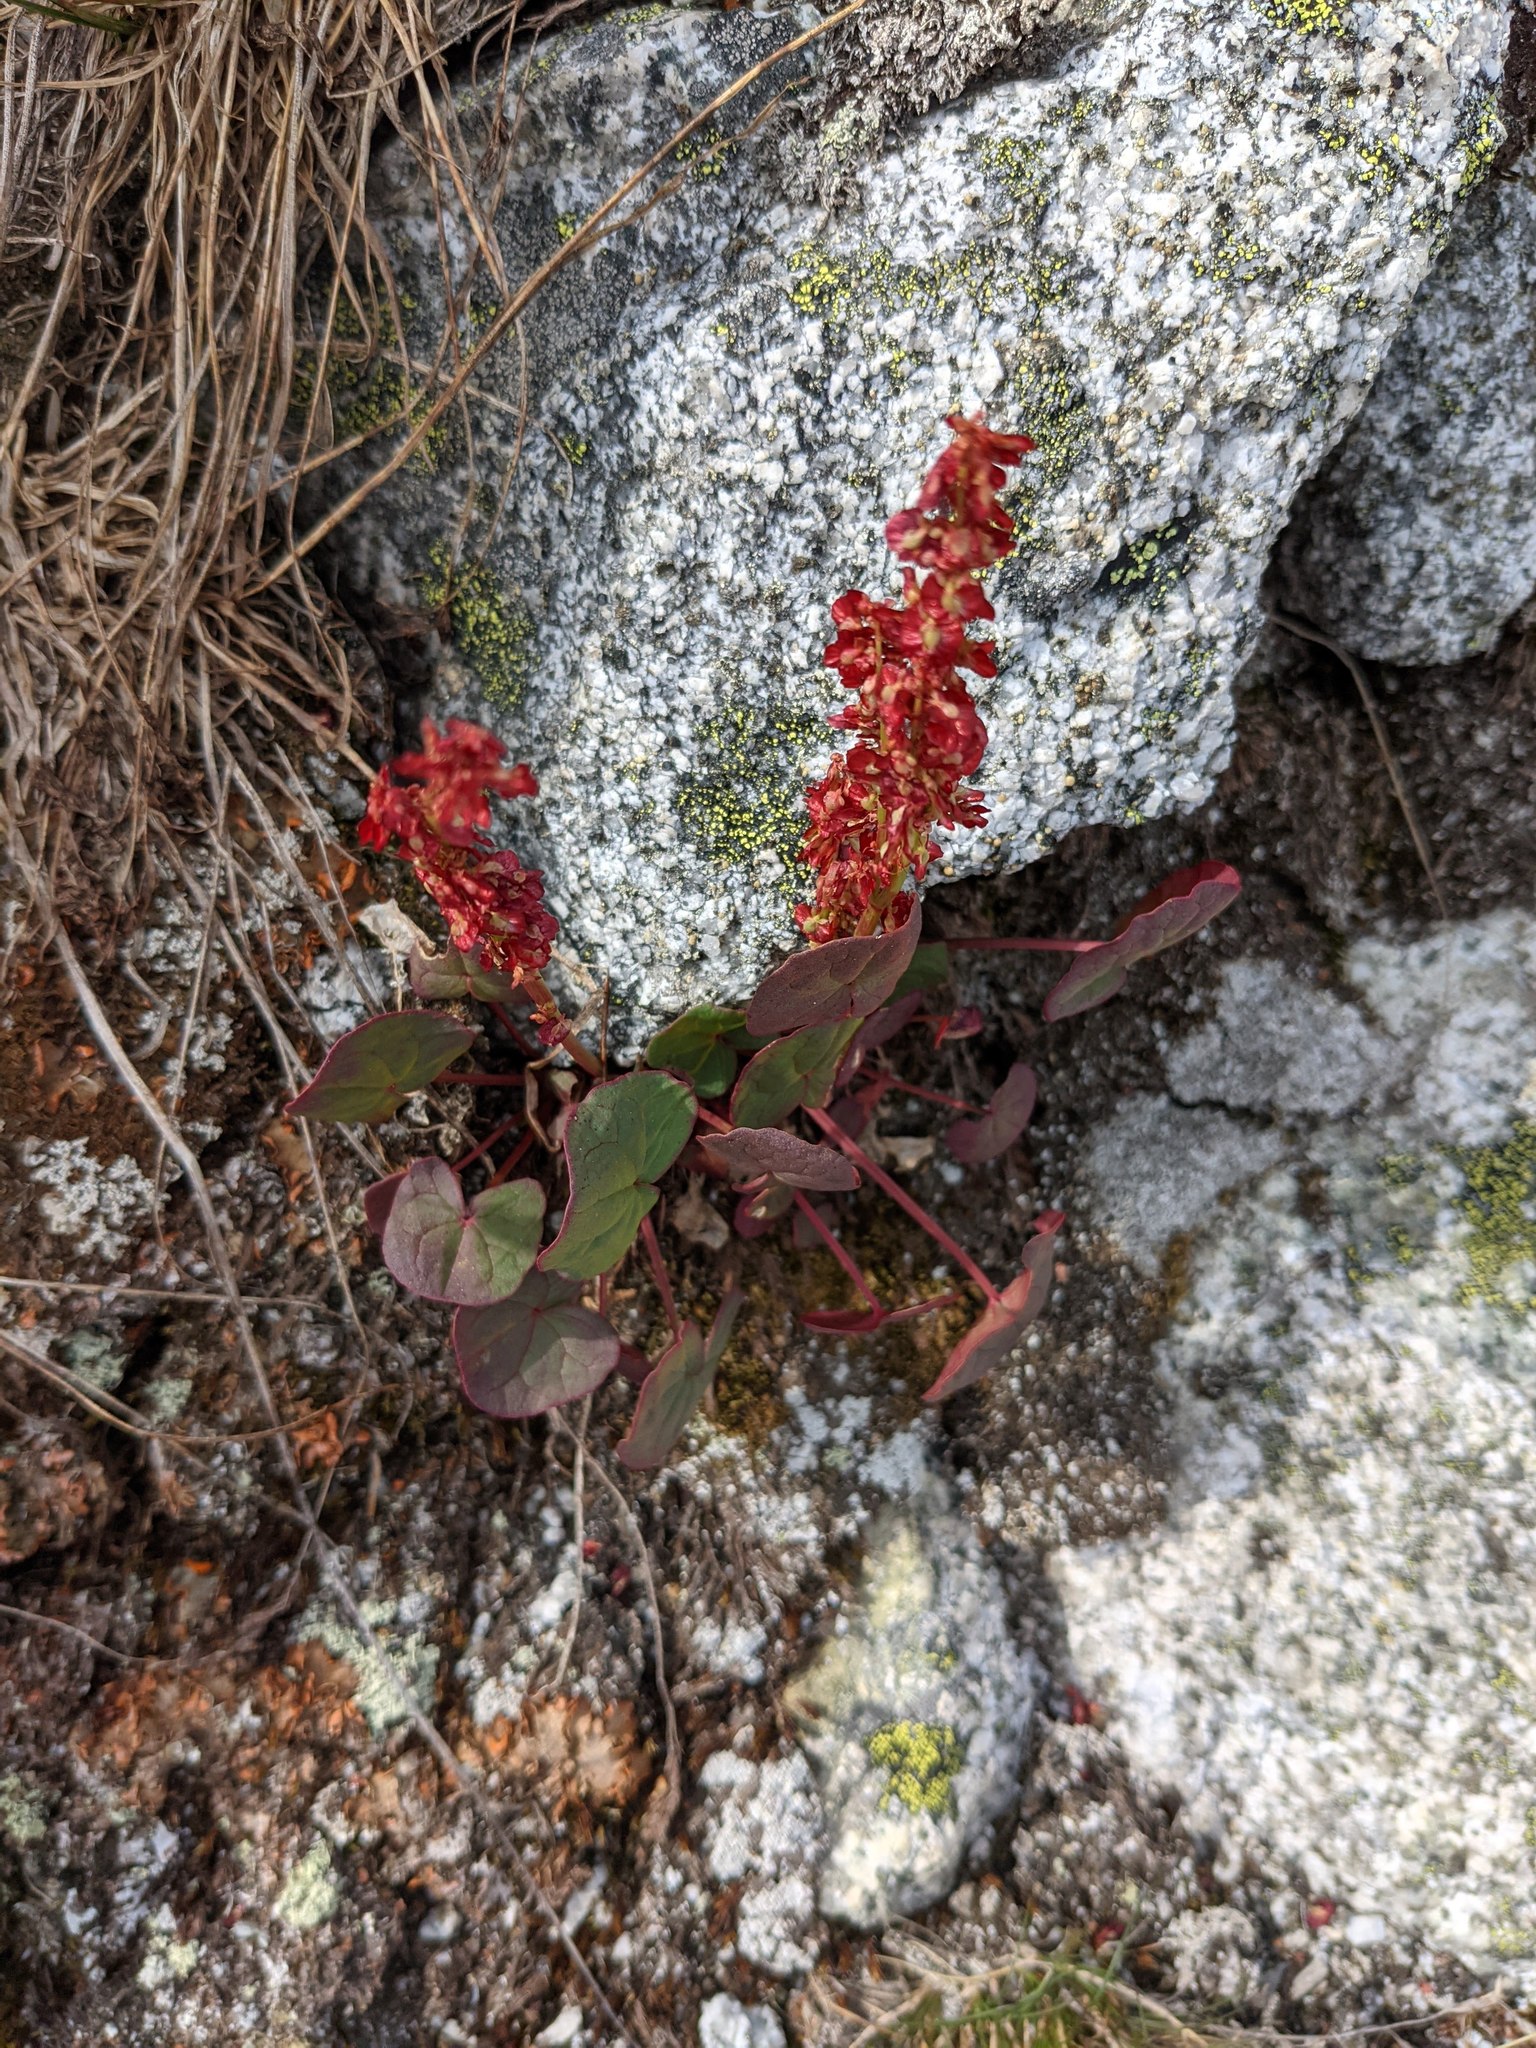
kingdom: Plantae
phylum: Tracheophyta
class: Magnoliopsida
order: Caryophyllales
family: Polygonaceae
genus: Oxyria
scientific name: Oxyria digyna
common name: Alpine mountain-sorrel
